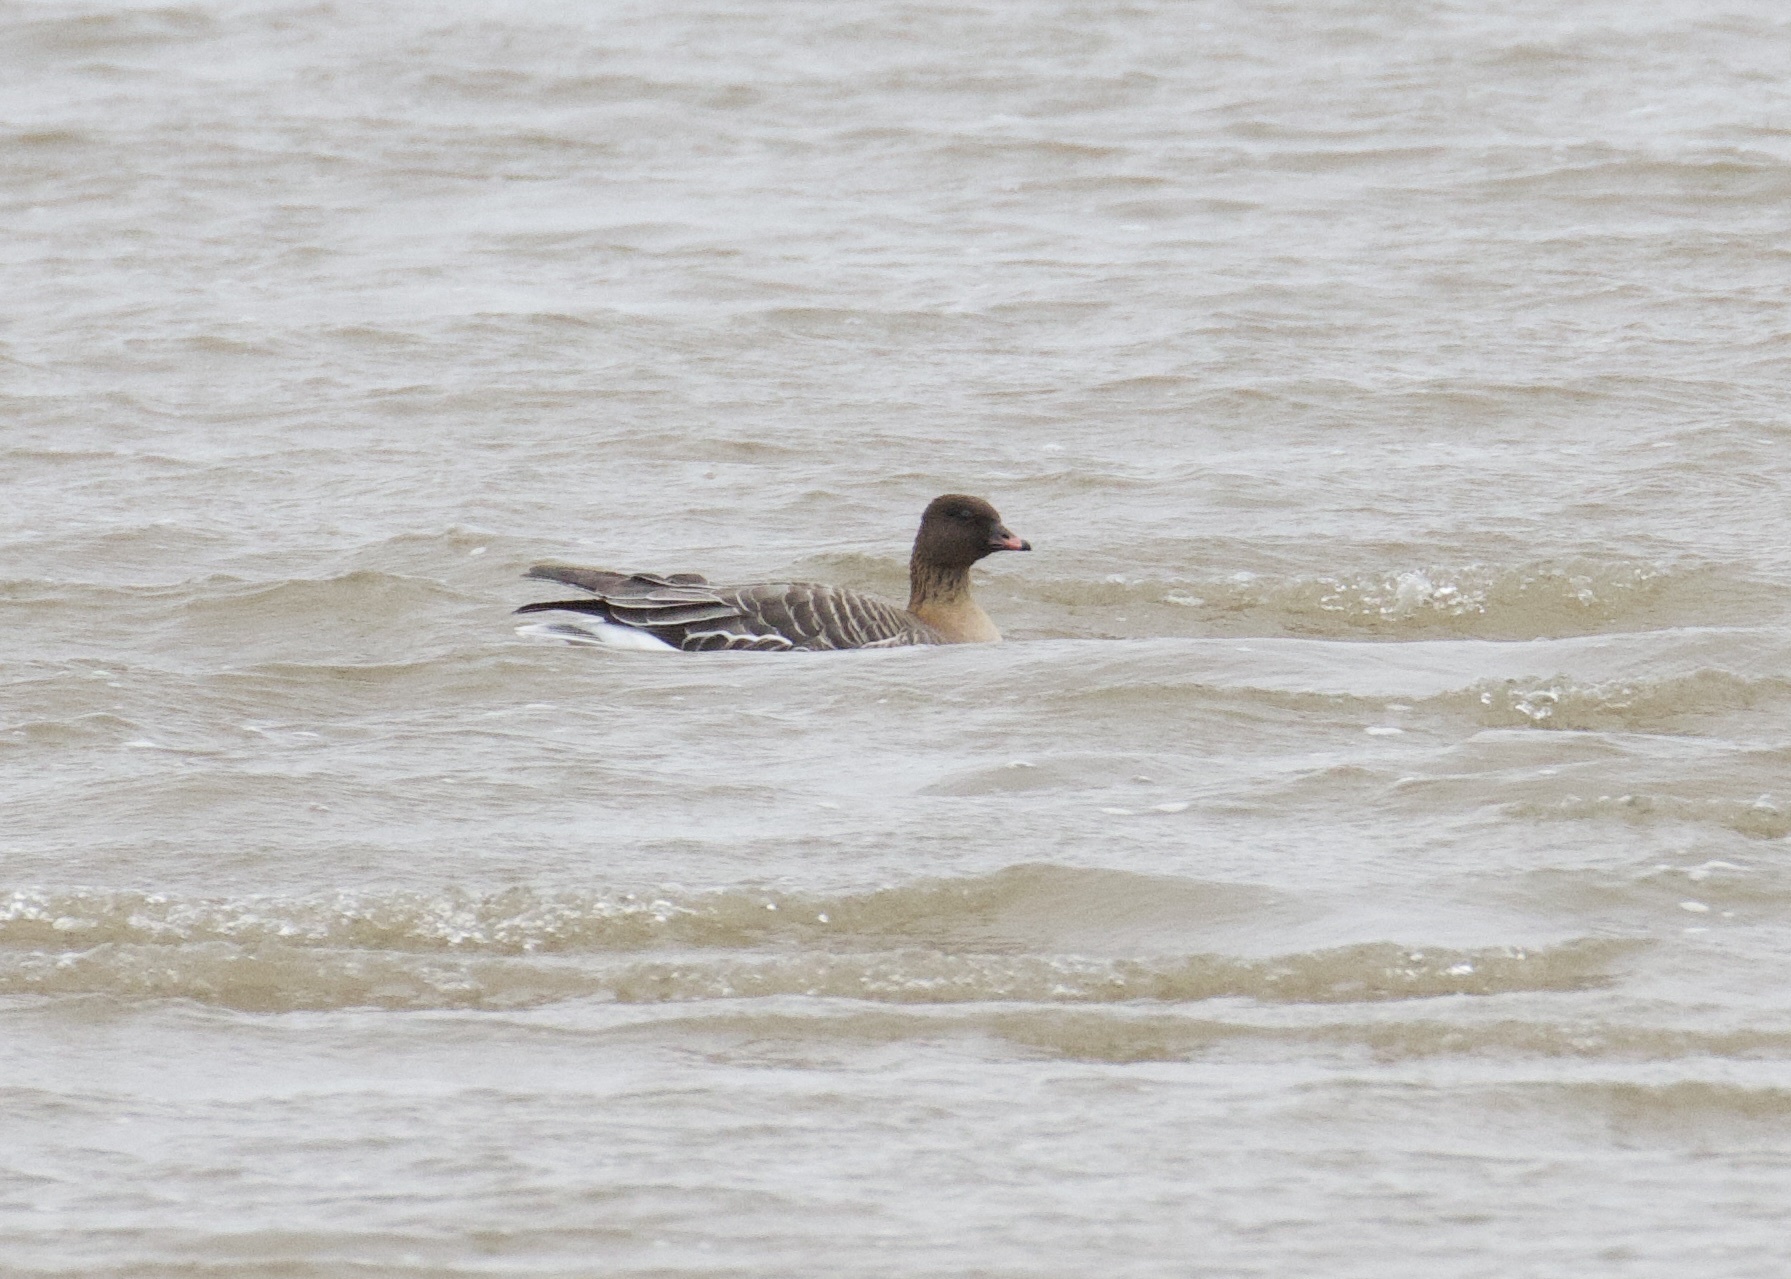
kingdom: Animalia
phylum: Chordata
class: Aves
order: Anseriformes
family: Anatidae
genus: Anser
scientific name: Anser brachyrhynchus
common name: Pink-footed goose
